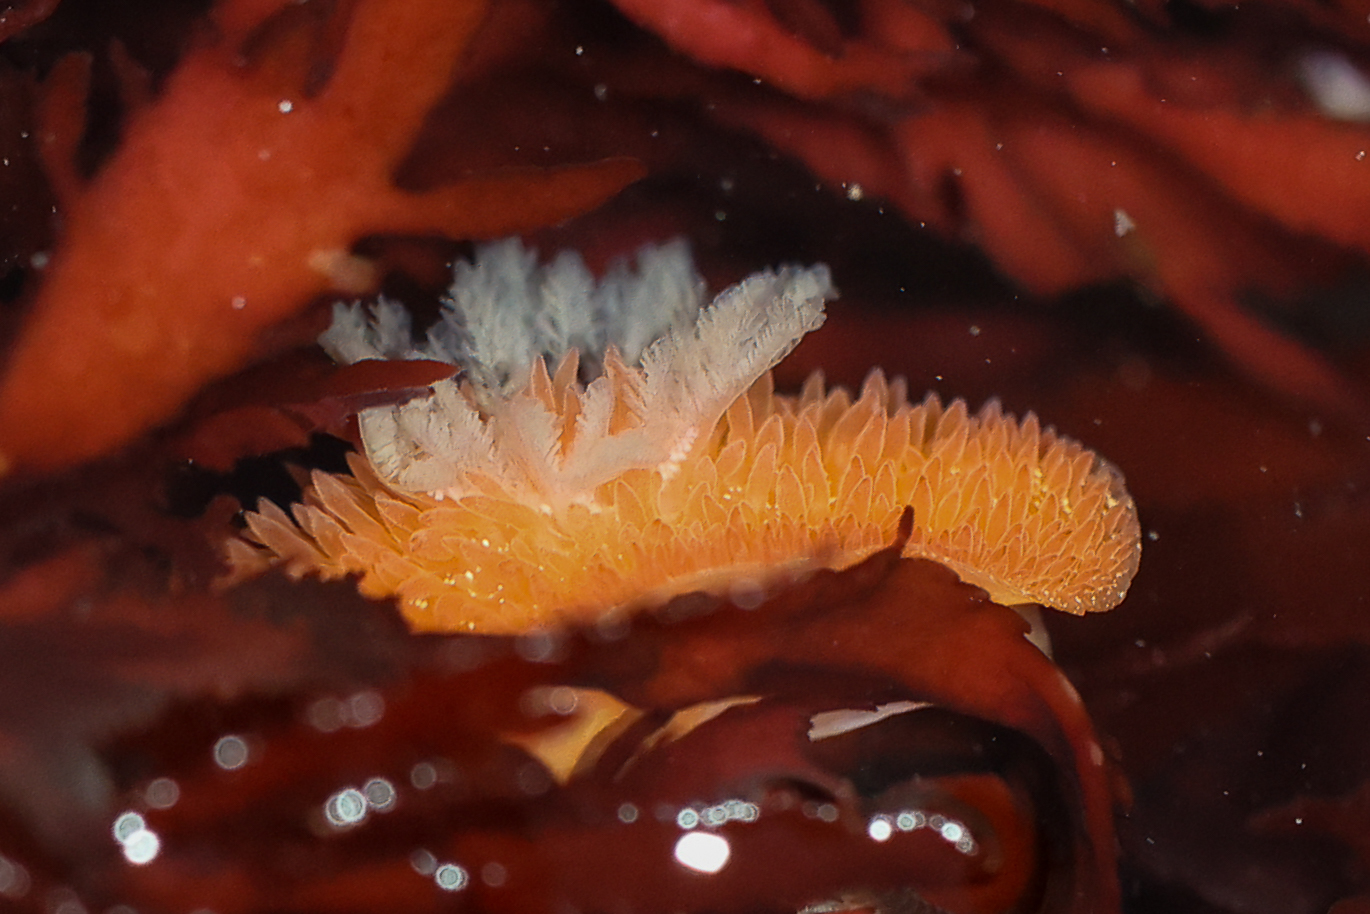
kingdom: Animalia
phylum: Mollusca
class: Gastropoda
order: Nudibranchia
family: Onchidorididae
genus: Acanthodoris
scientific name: Acanthodoris lutea
